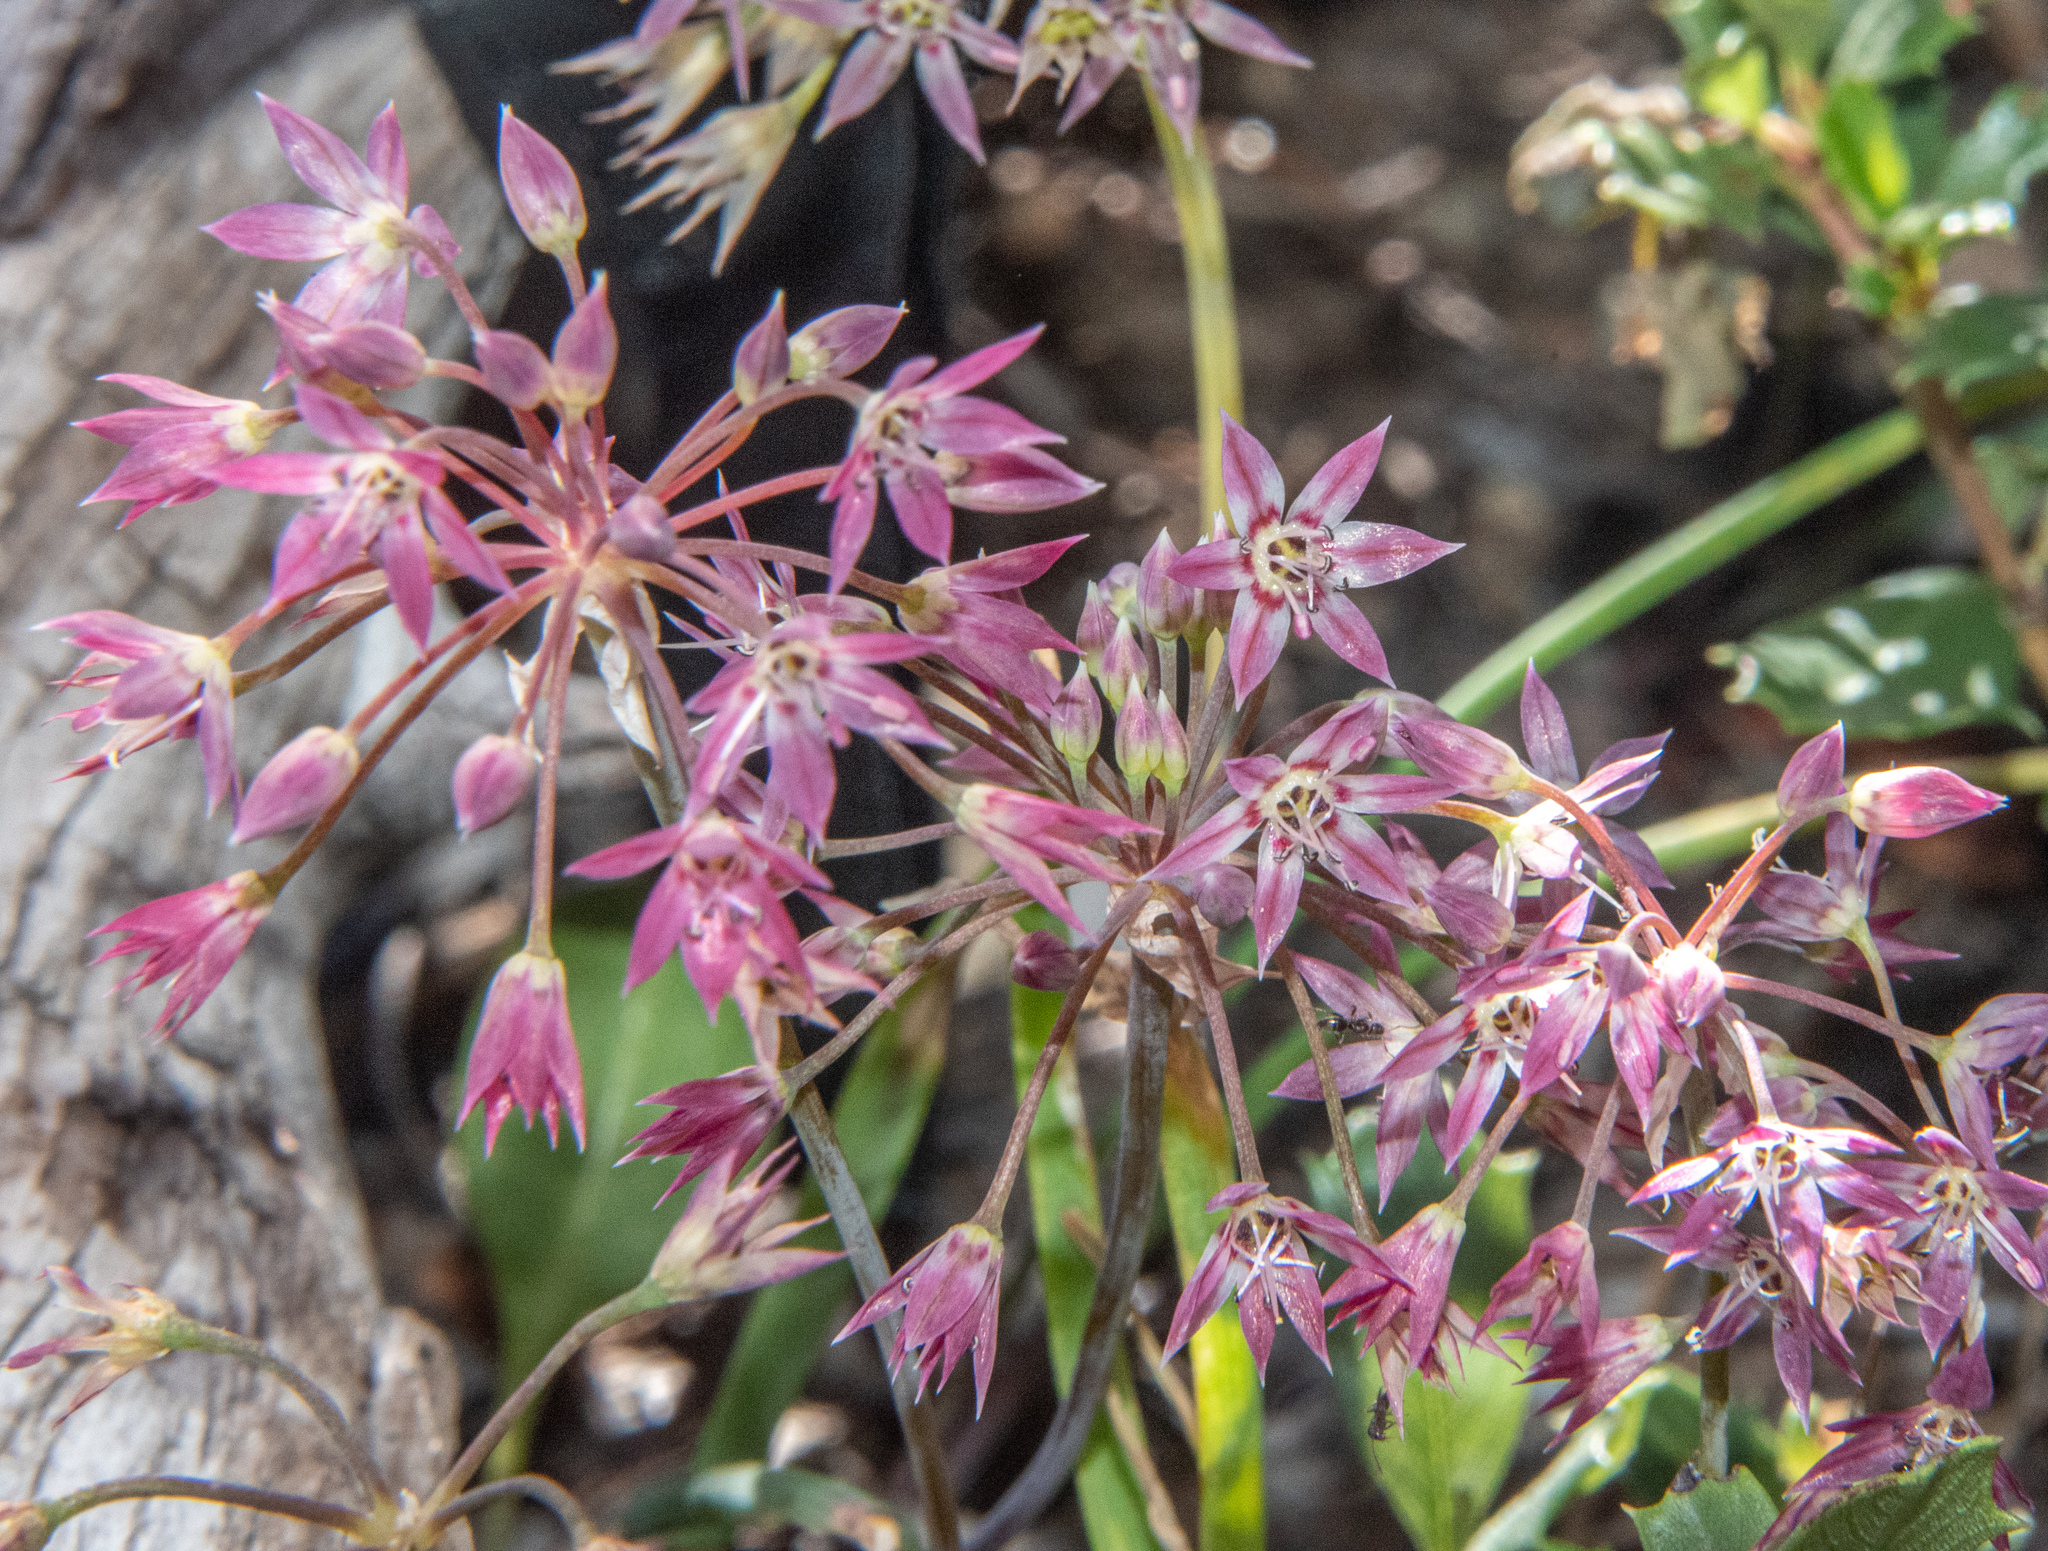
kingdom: Plantae
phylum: Tracheophyta
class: Liliopsida
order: Asparagales
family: Amaryllidaceae
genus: Allium
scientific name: Allium campanulatum
